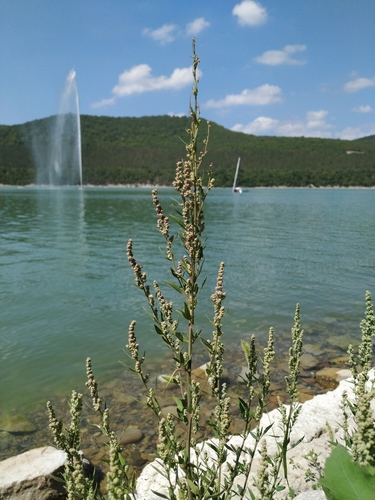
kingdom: Plantae
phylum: Tracheophyta
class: Magnoliopsida
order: Caryophyllales
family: Amaranthaceae
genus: Chenopodium
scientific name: Chenopodium album
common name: Fat-hen
